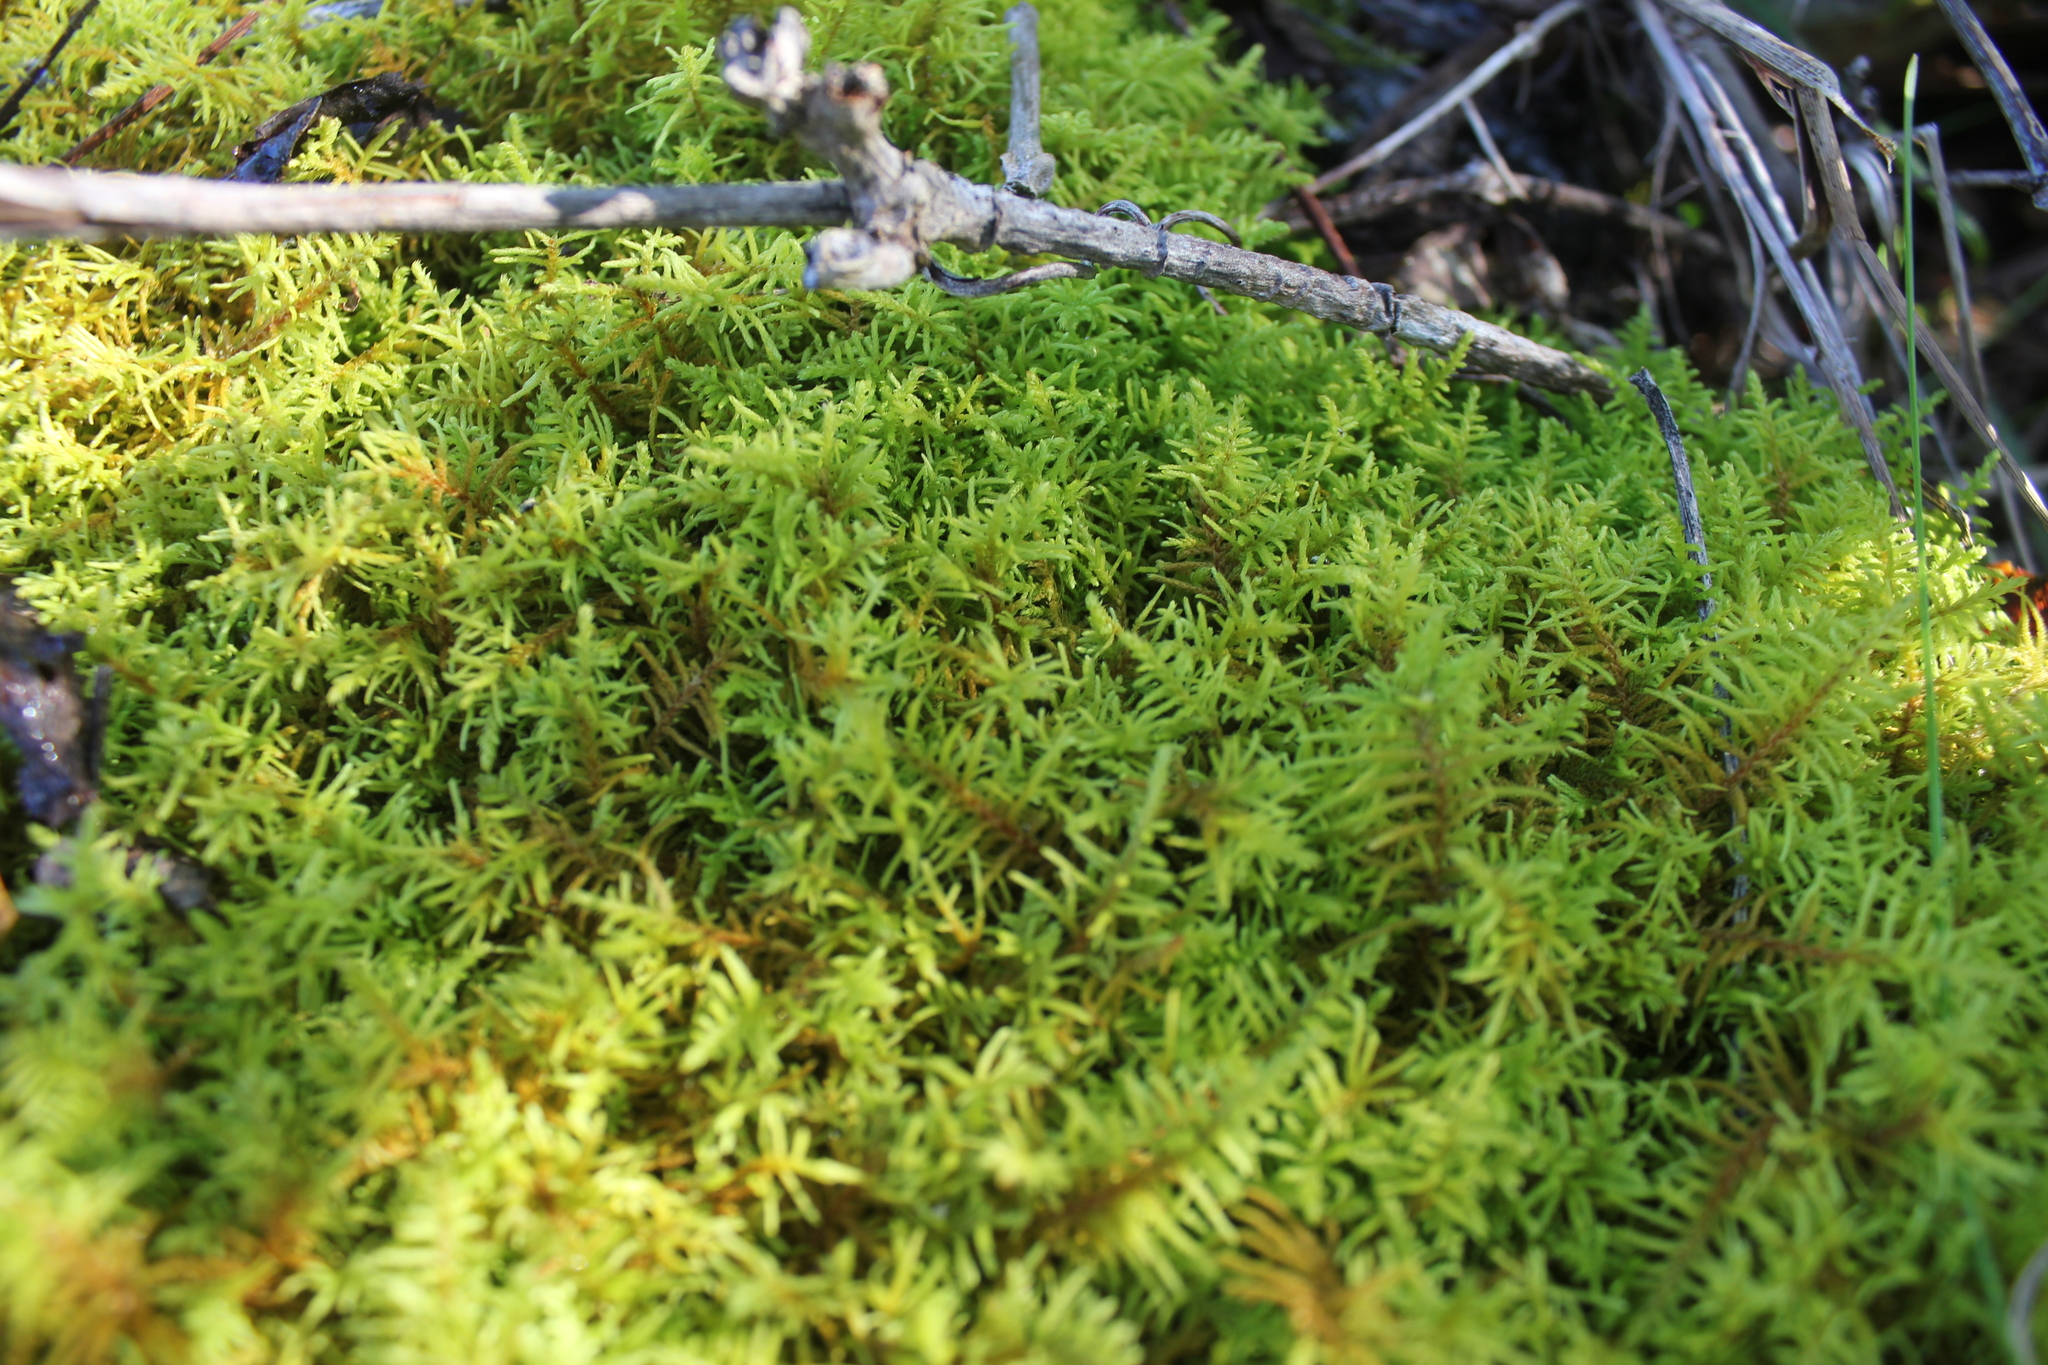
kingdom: Plantae
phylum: Bryophyta
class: Bryopsida
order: Hypnales
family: Thuidiaceae
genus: Abietinella
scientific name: Abietinella abietina
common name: Wiry fern moss
